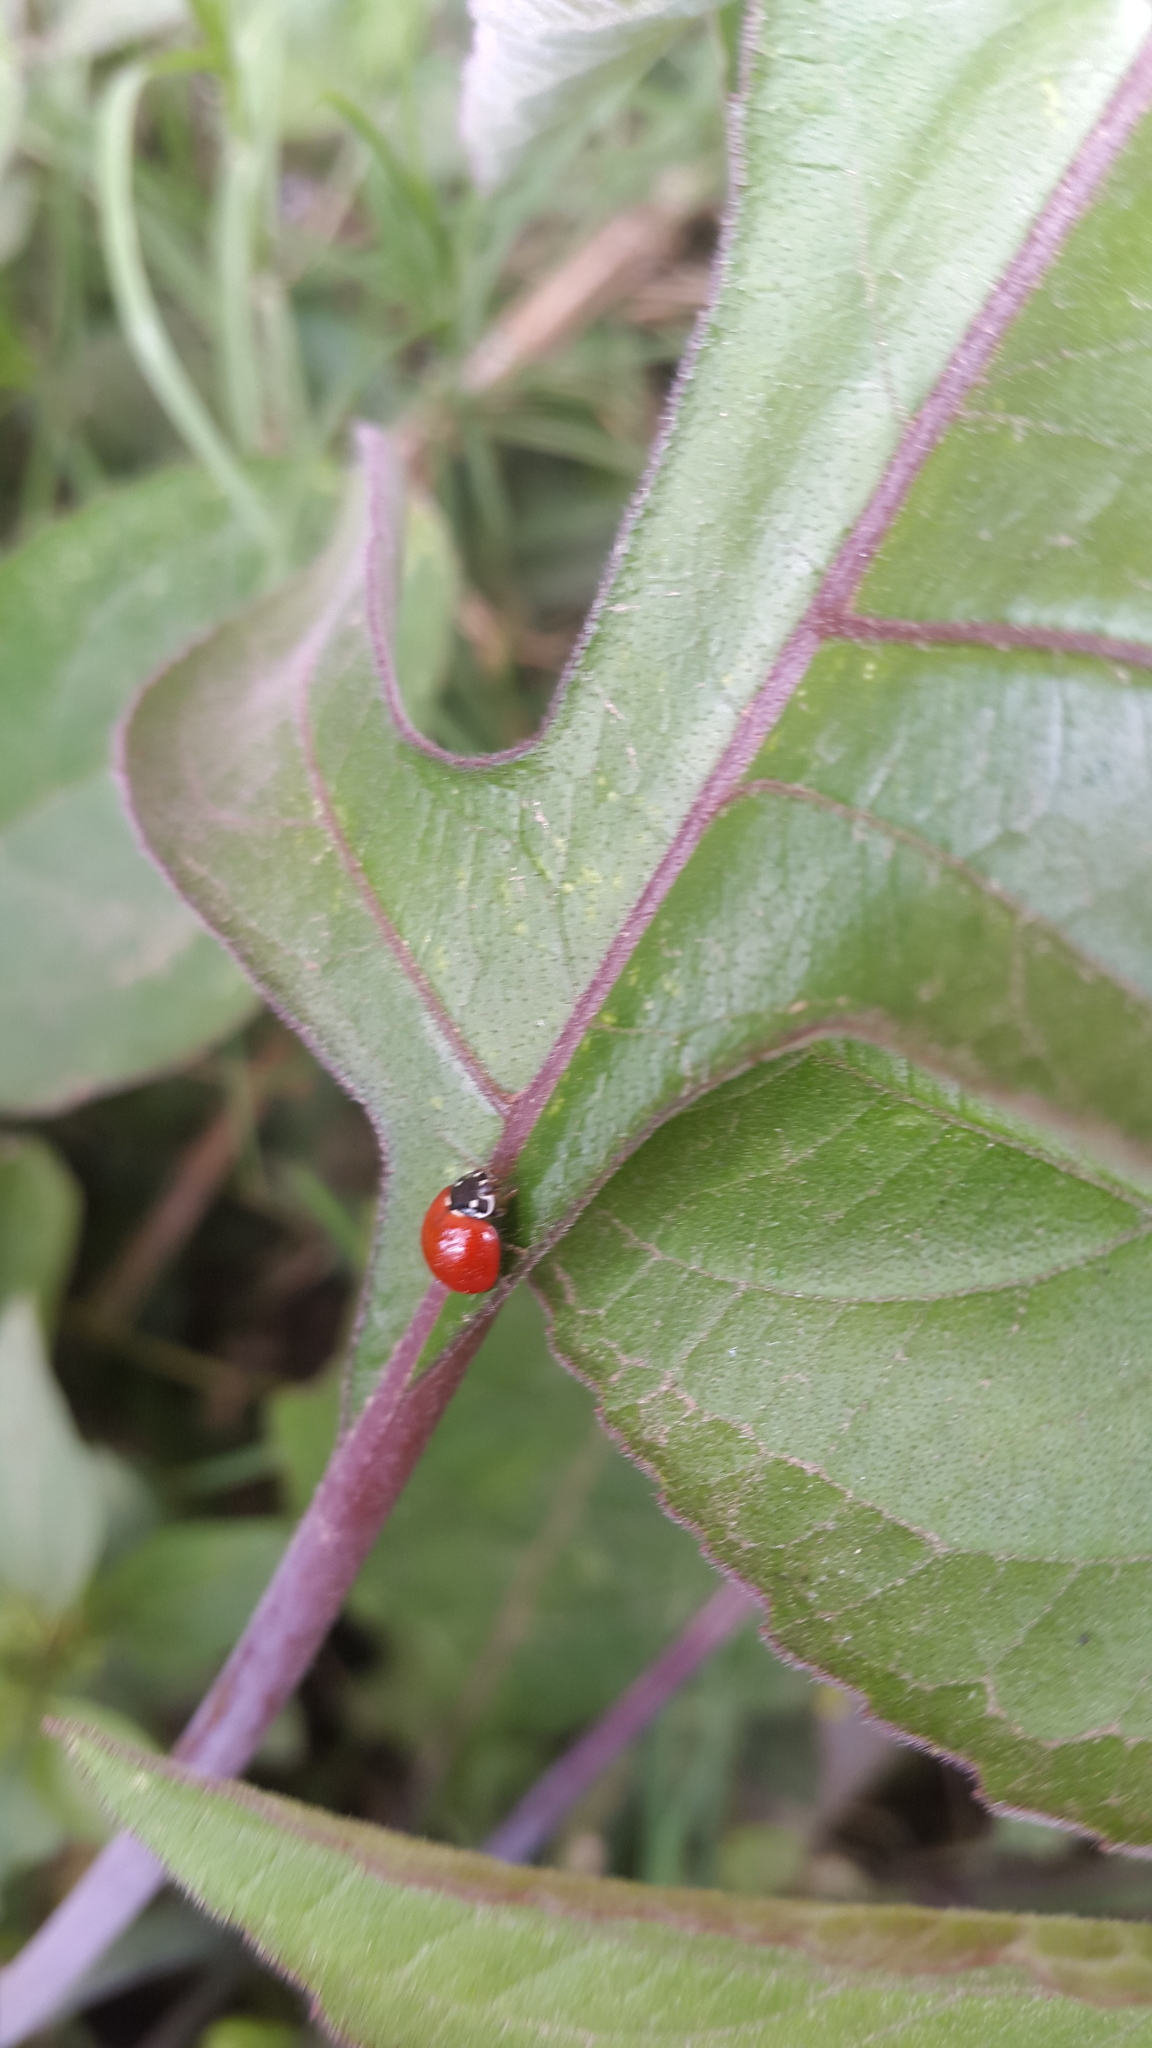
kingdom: Animalia
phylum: Arthropoda
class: Insecta
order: Coleoptera
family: Coccinellidae
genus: Cycloneda
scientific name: Cycloneda sanguinea
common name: Ladybird beetle
